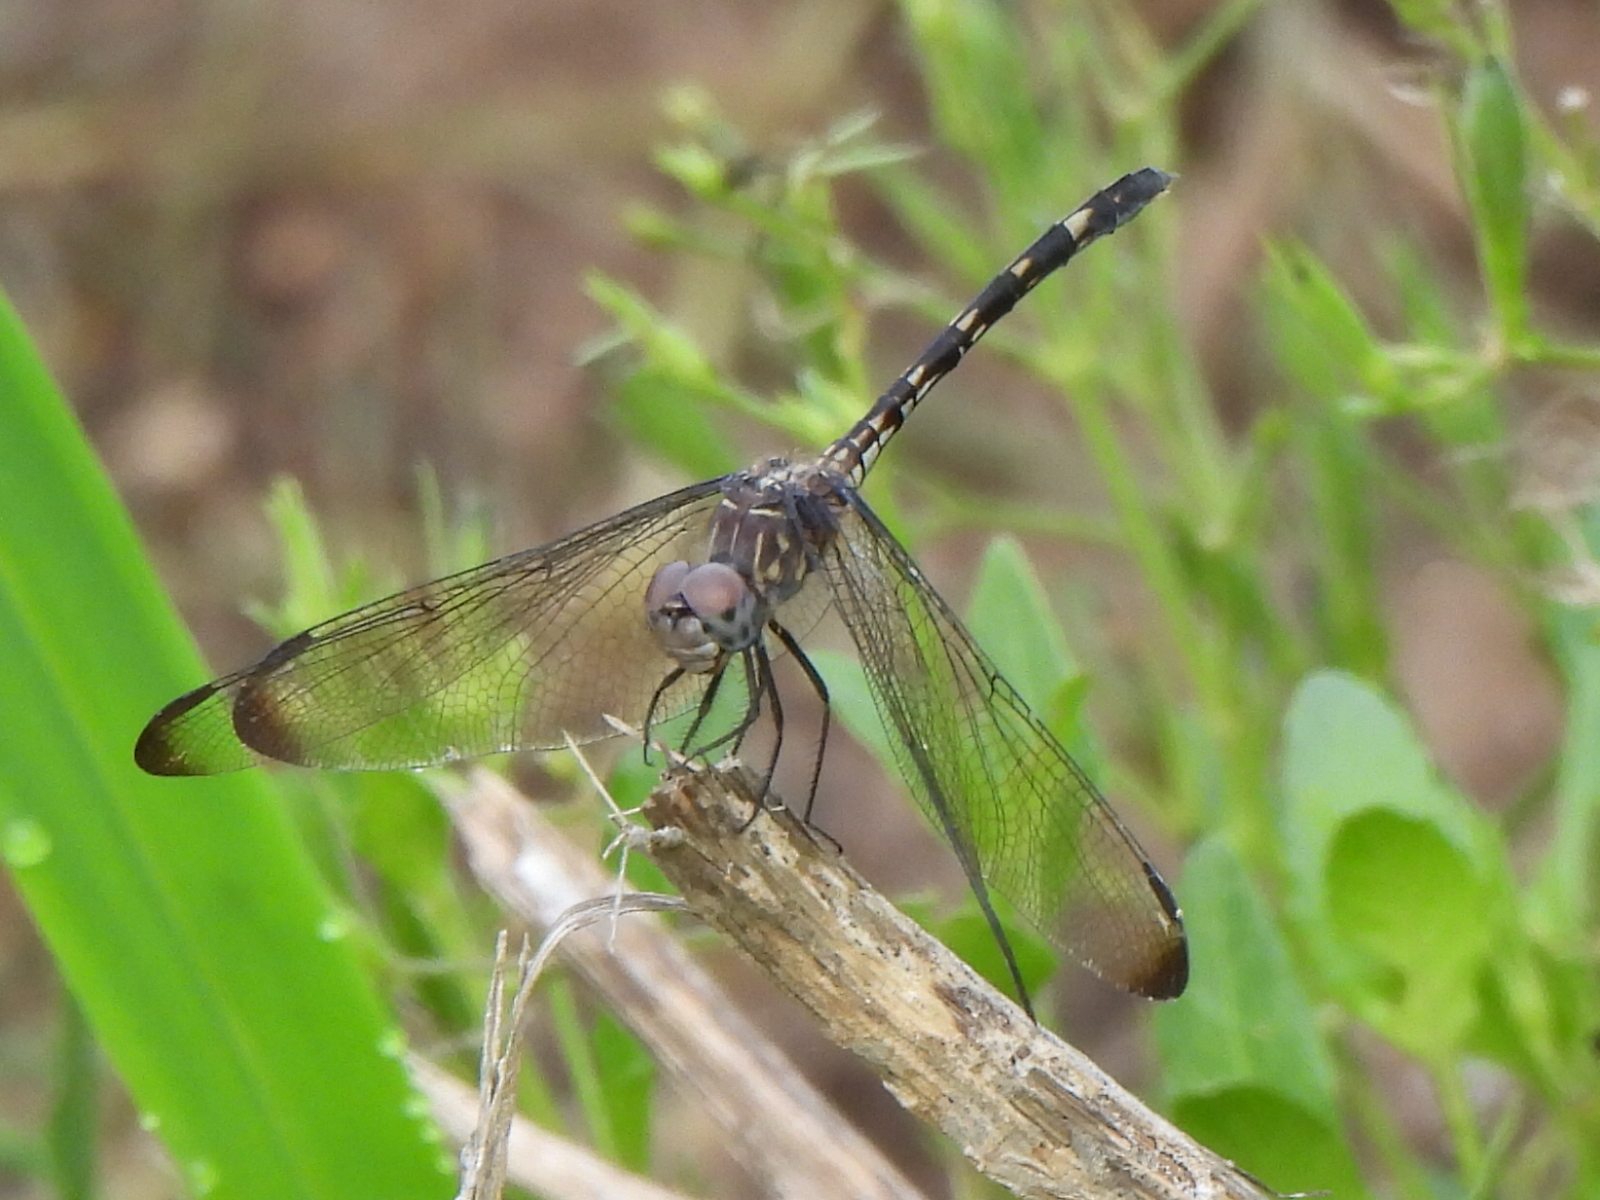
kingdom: Animalia
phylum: Arthropoda
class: Insecta
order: Odonata
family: Libellulidae
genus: Dythemis
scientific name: Dythemis nigrescens
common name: Black setwing
